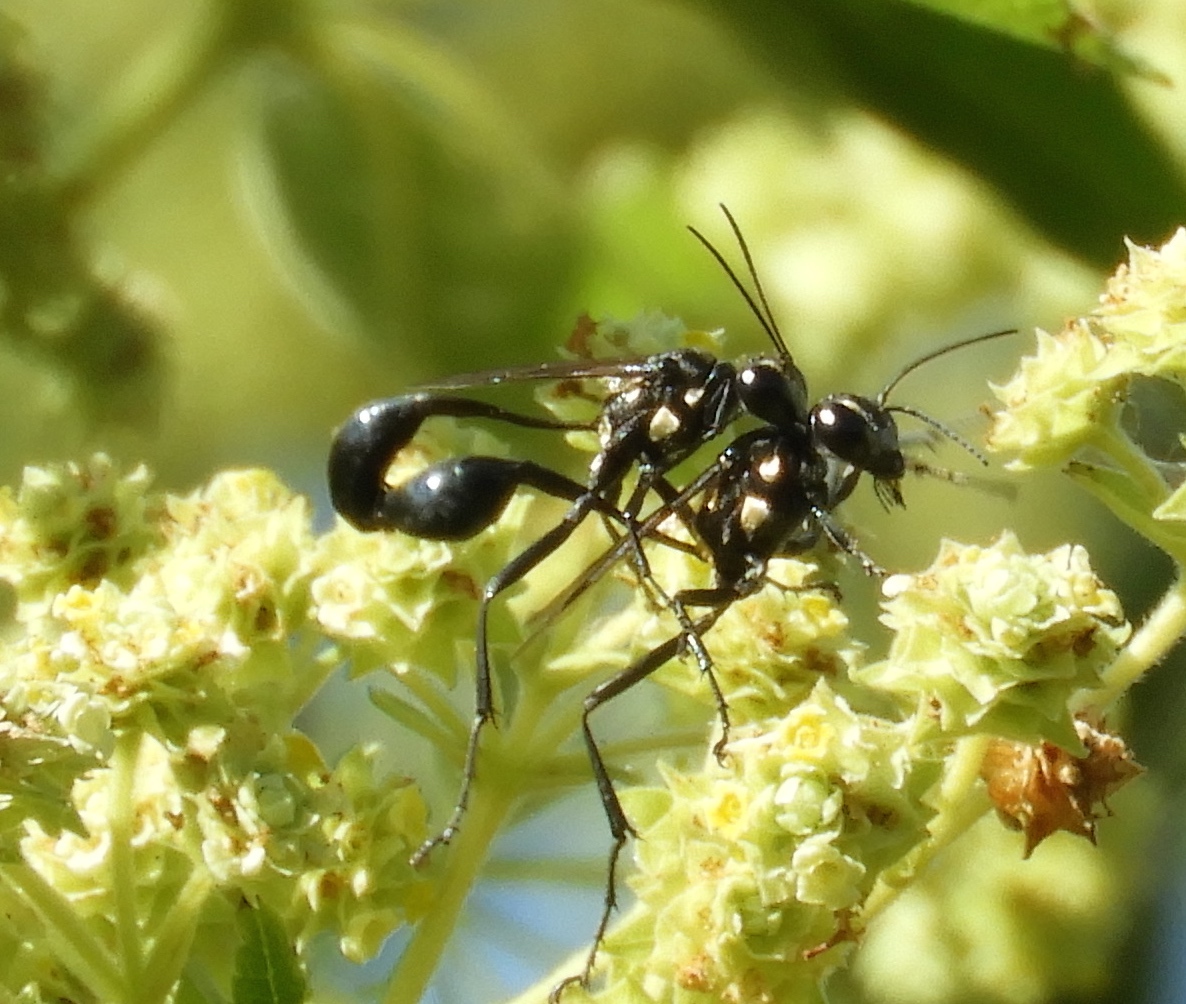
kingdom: Animalia
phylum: Arthropoda
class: Insecta
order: Hymenoptera
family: Sphecidae
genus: Eremnophila
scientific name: Eremnophila aureonotata
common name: Gold-marked thread-waisted wasp
